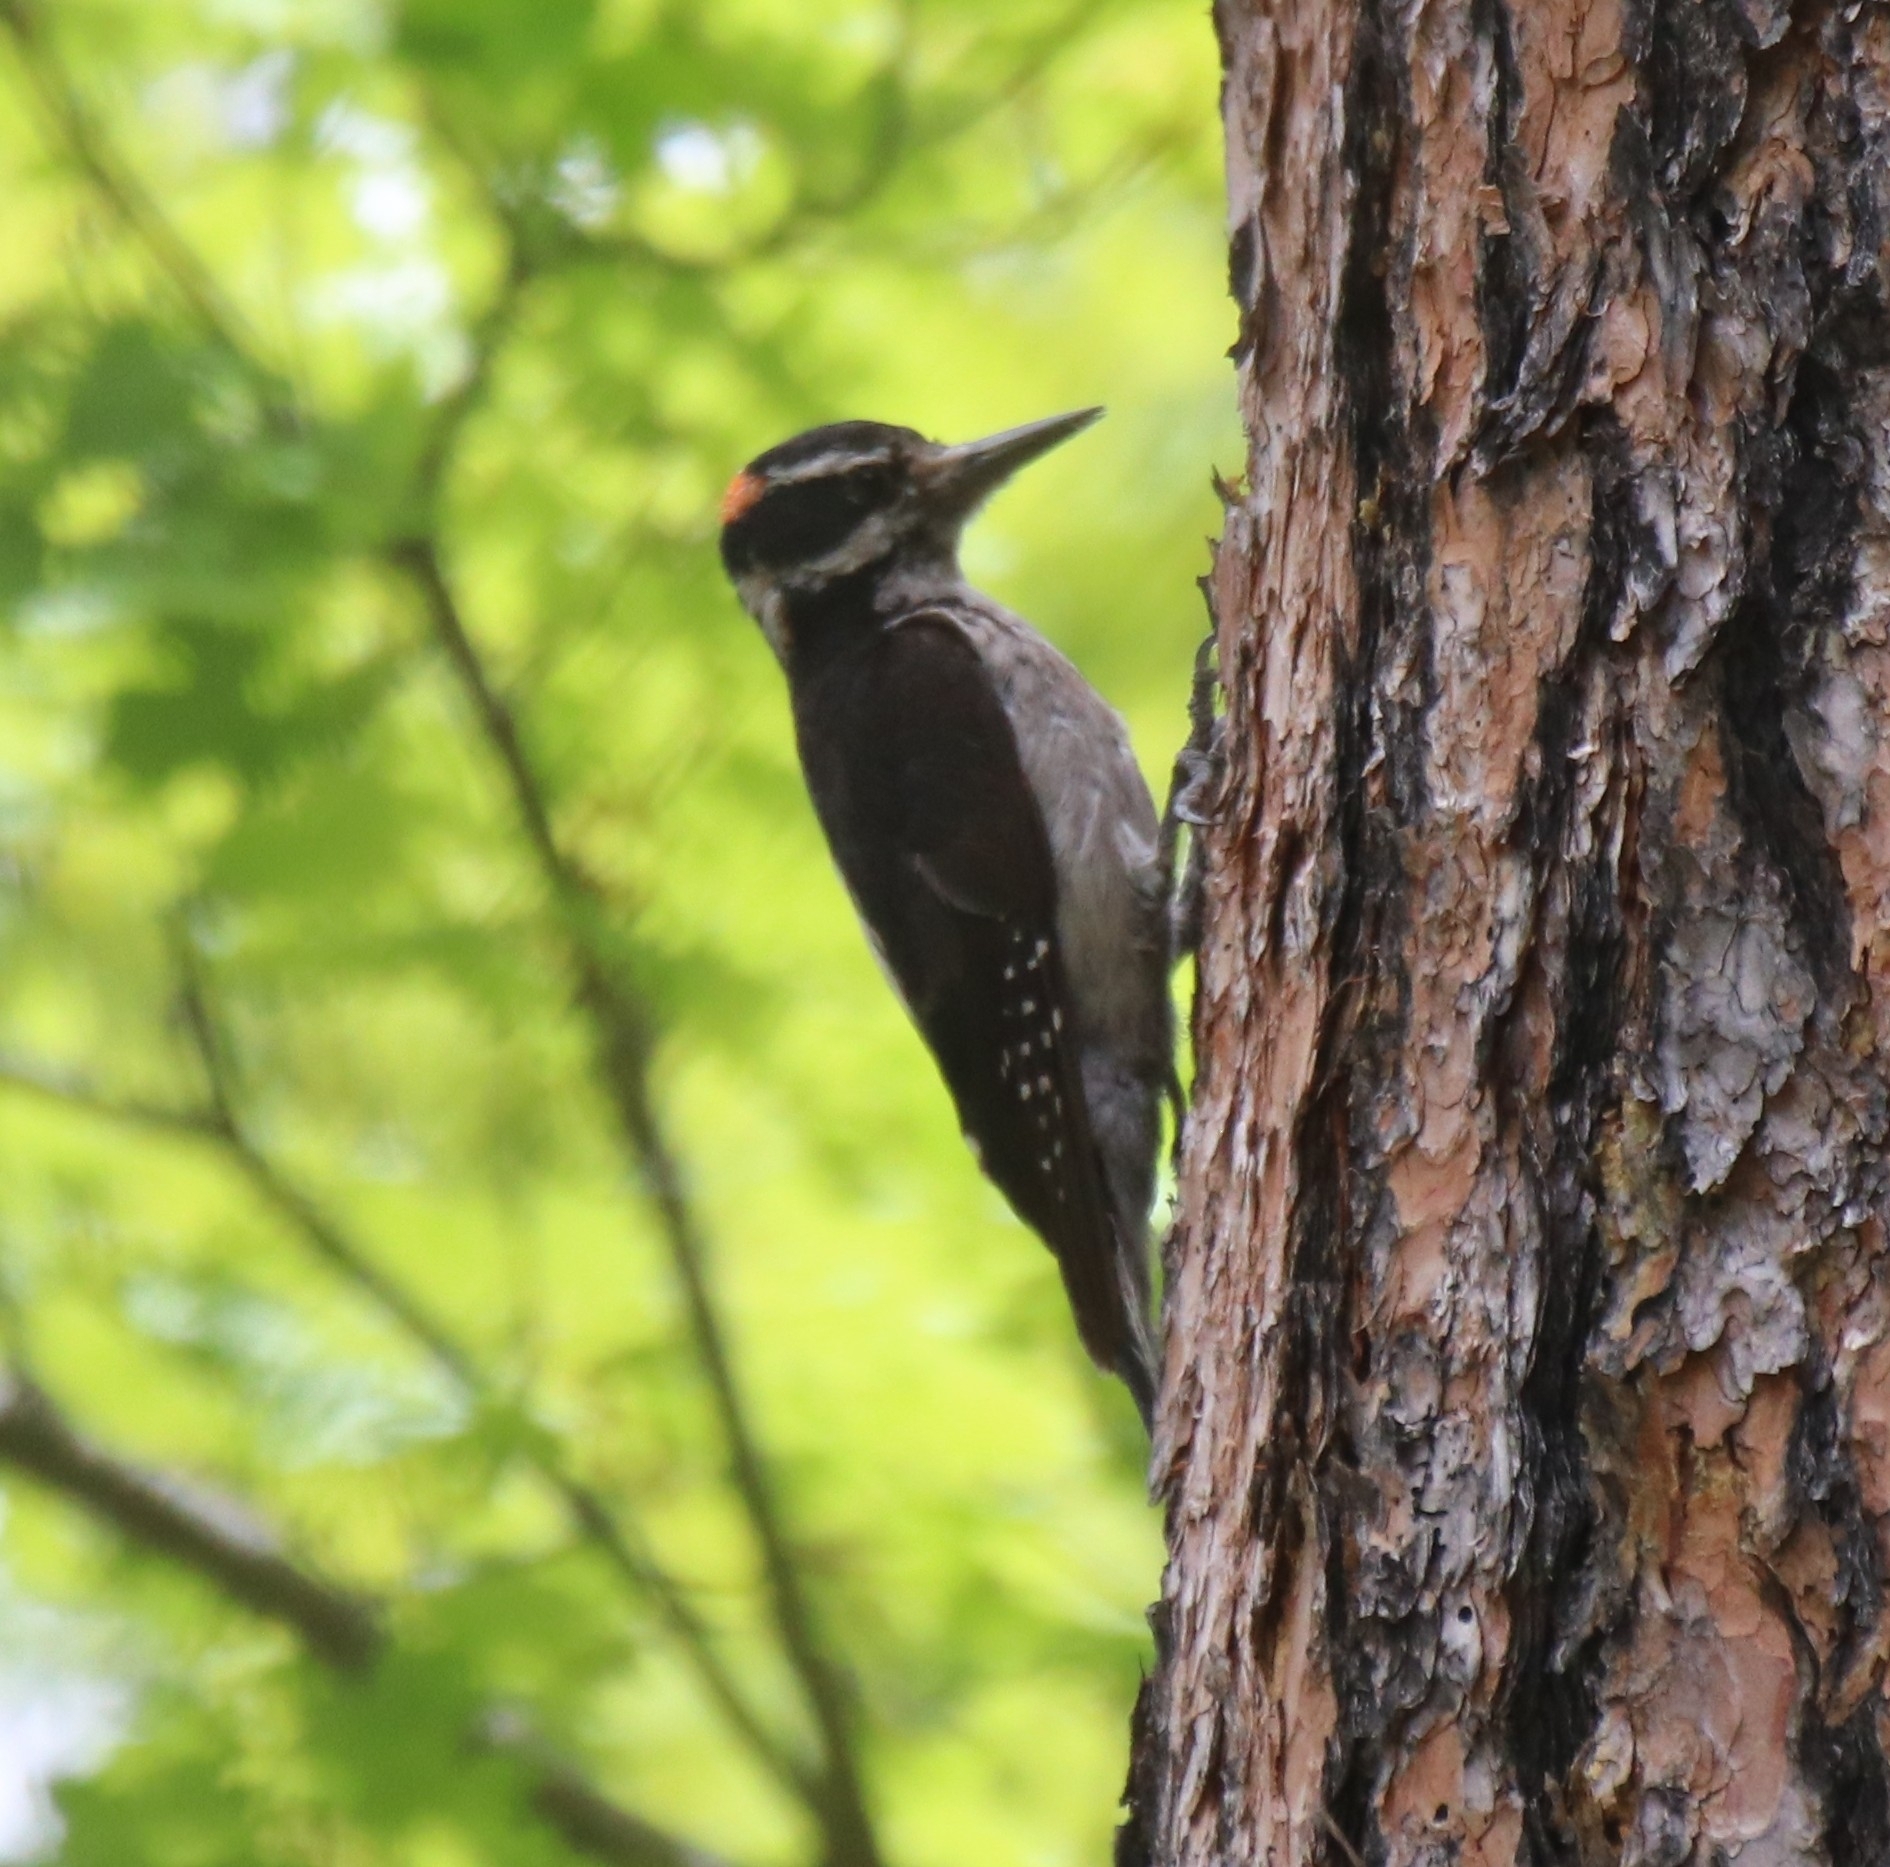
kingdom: Animalia
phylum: Chordata
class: Aves
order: Piciformes
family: Picidae
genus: Leuconotopicus
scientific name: Leuconotopicus villosus
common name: Hairy woodpecker
